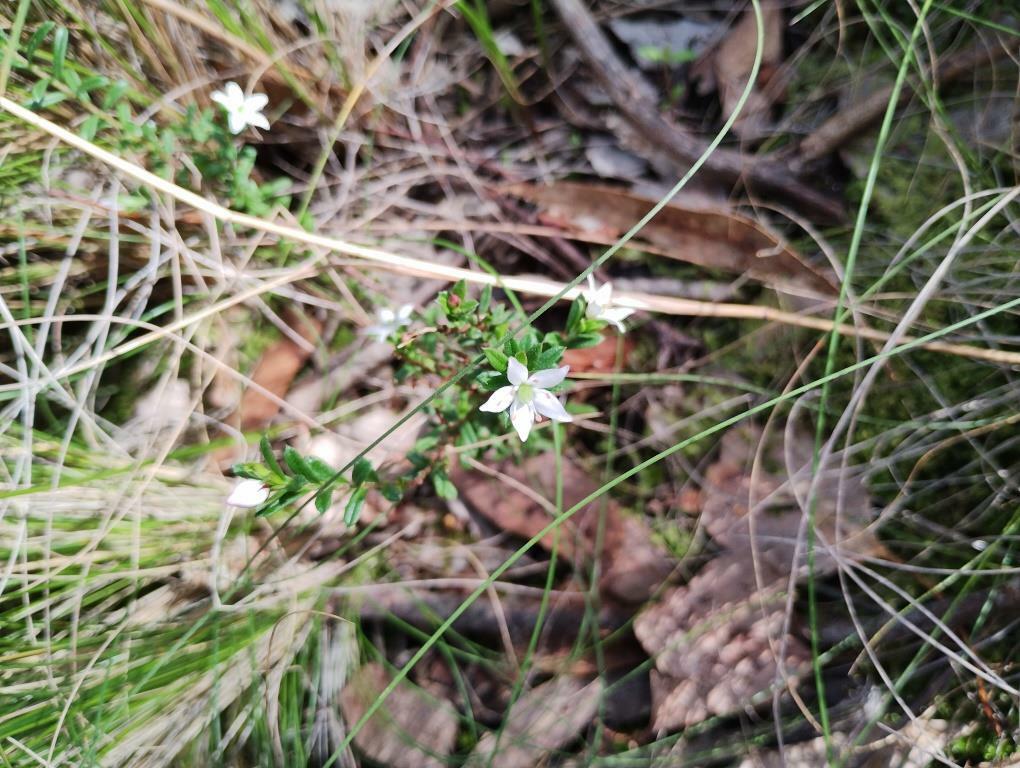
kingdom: Plantae
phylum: Tracheophyta
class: Magnoliopsida
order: Apiales
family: Pittosporaceae
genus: Rhytidosporum
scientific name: Rhytidosporum procumbens
